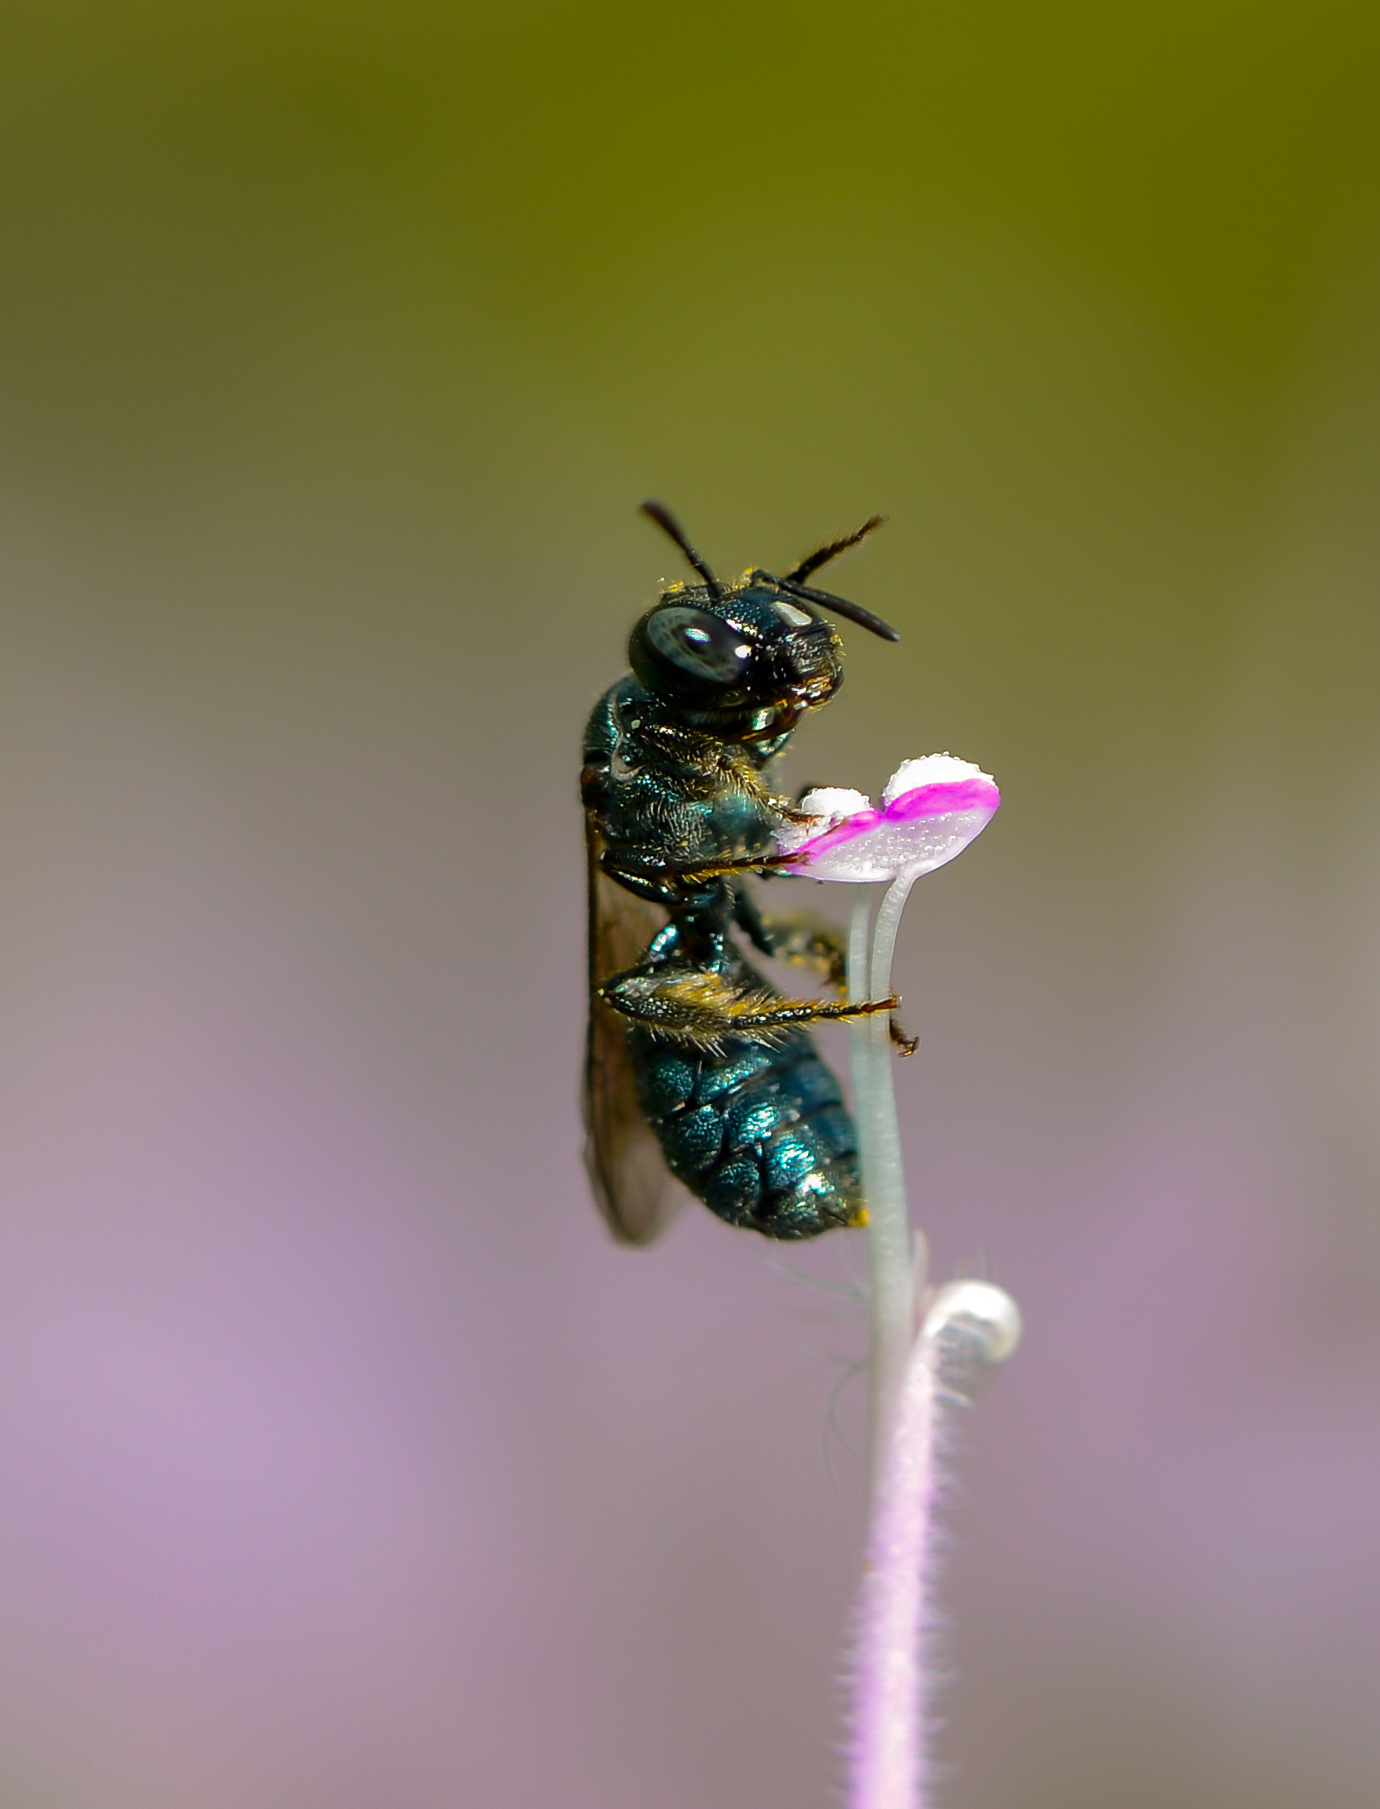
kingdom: Animalia
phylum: Arthropoda
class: Insecta
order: Hymenoptera
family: Apidae
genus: Zadontomerus
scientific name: Zadontomerus
